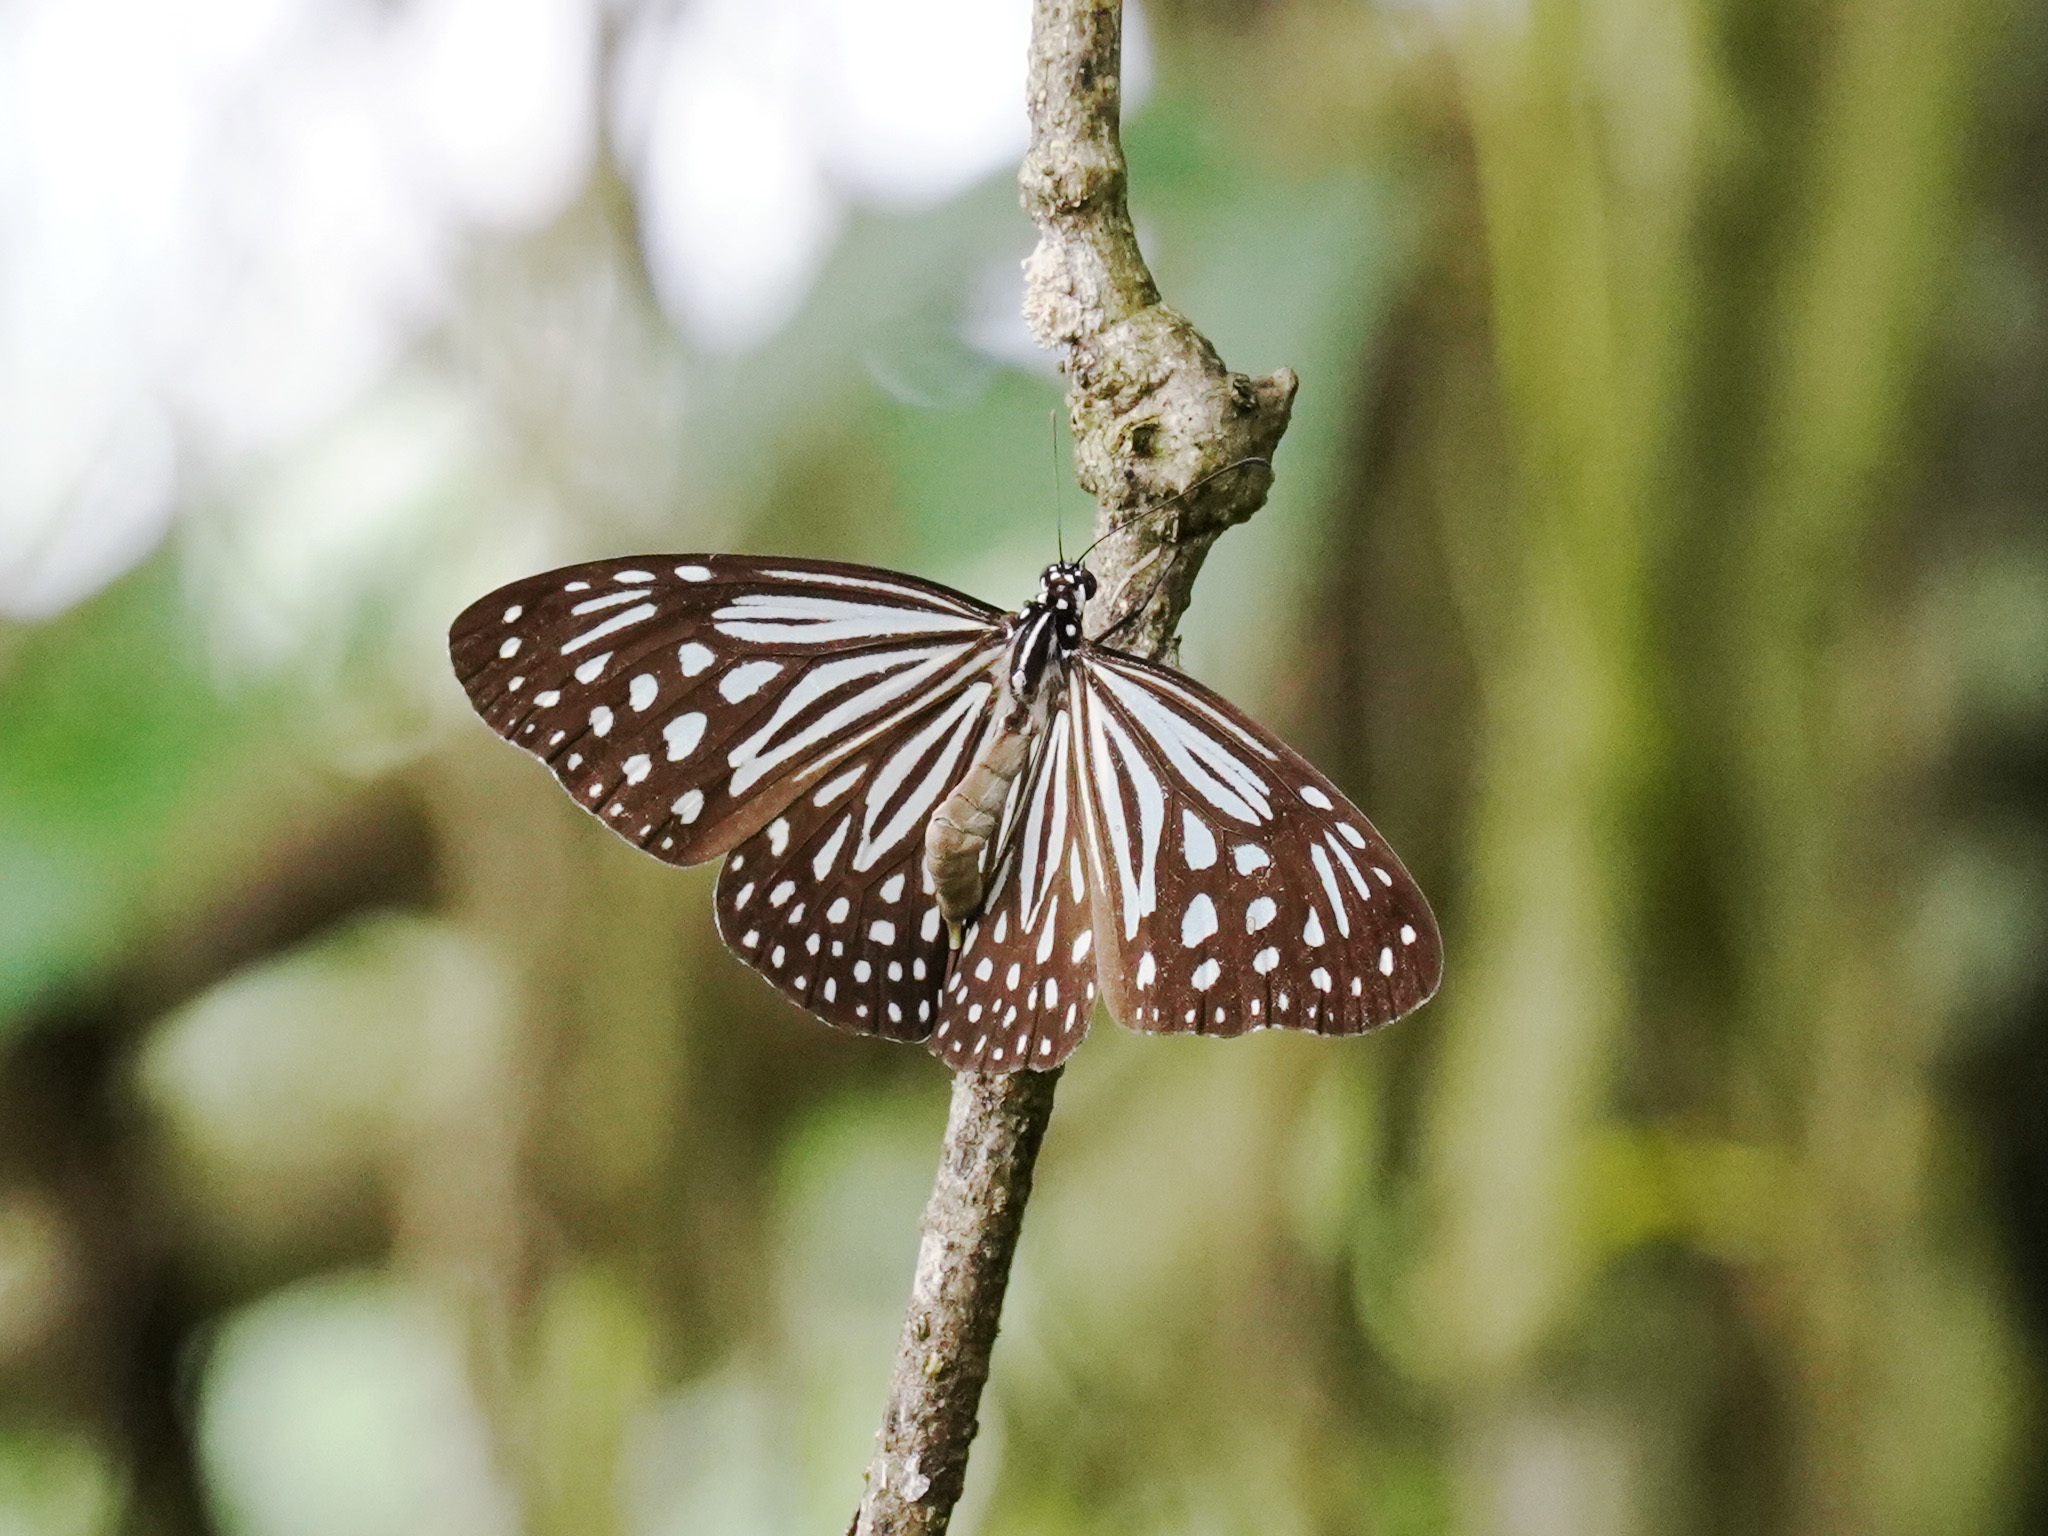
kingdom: Animalia
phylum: Arthropoda
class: Insecta
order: Lepidoptera
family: Nymphalidae
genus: Parantica
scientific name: Parantica agleoides
